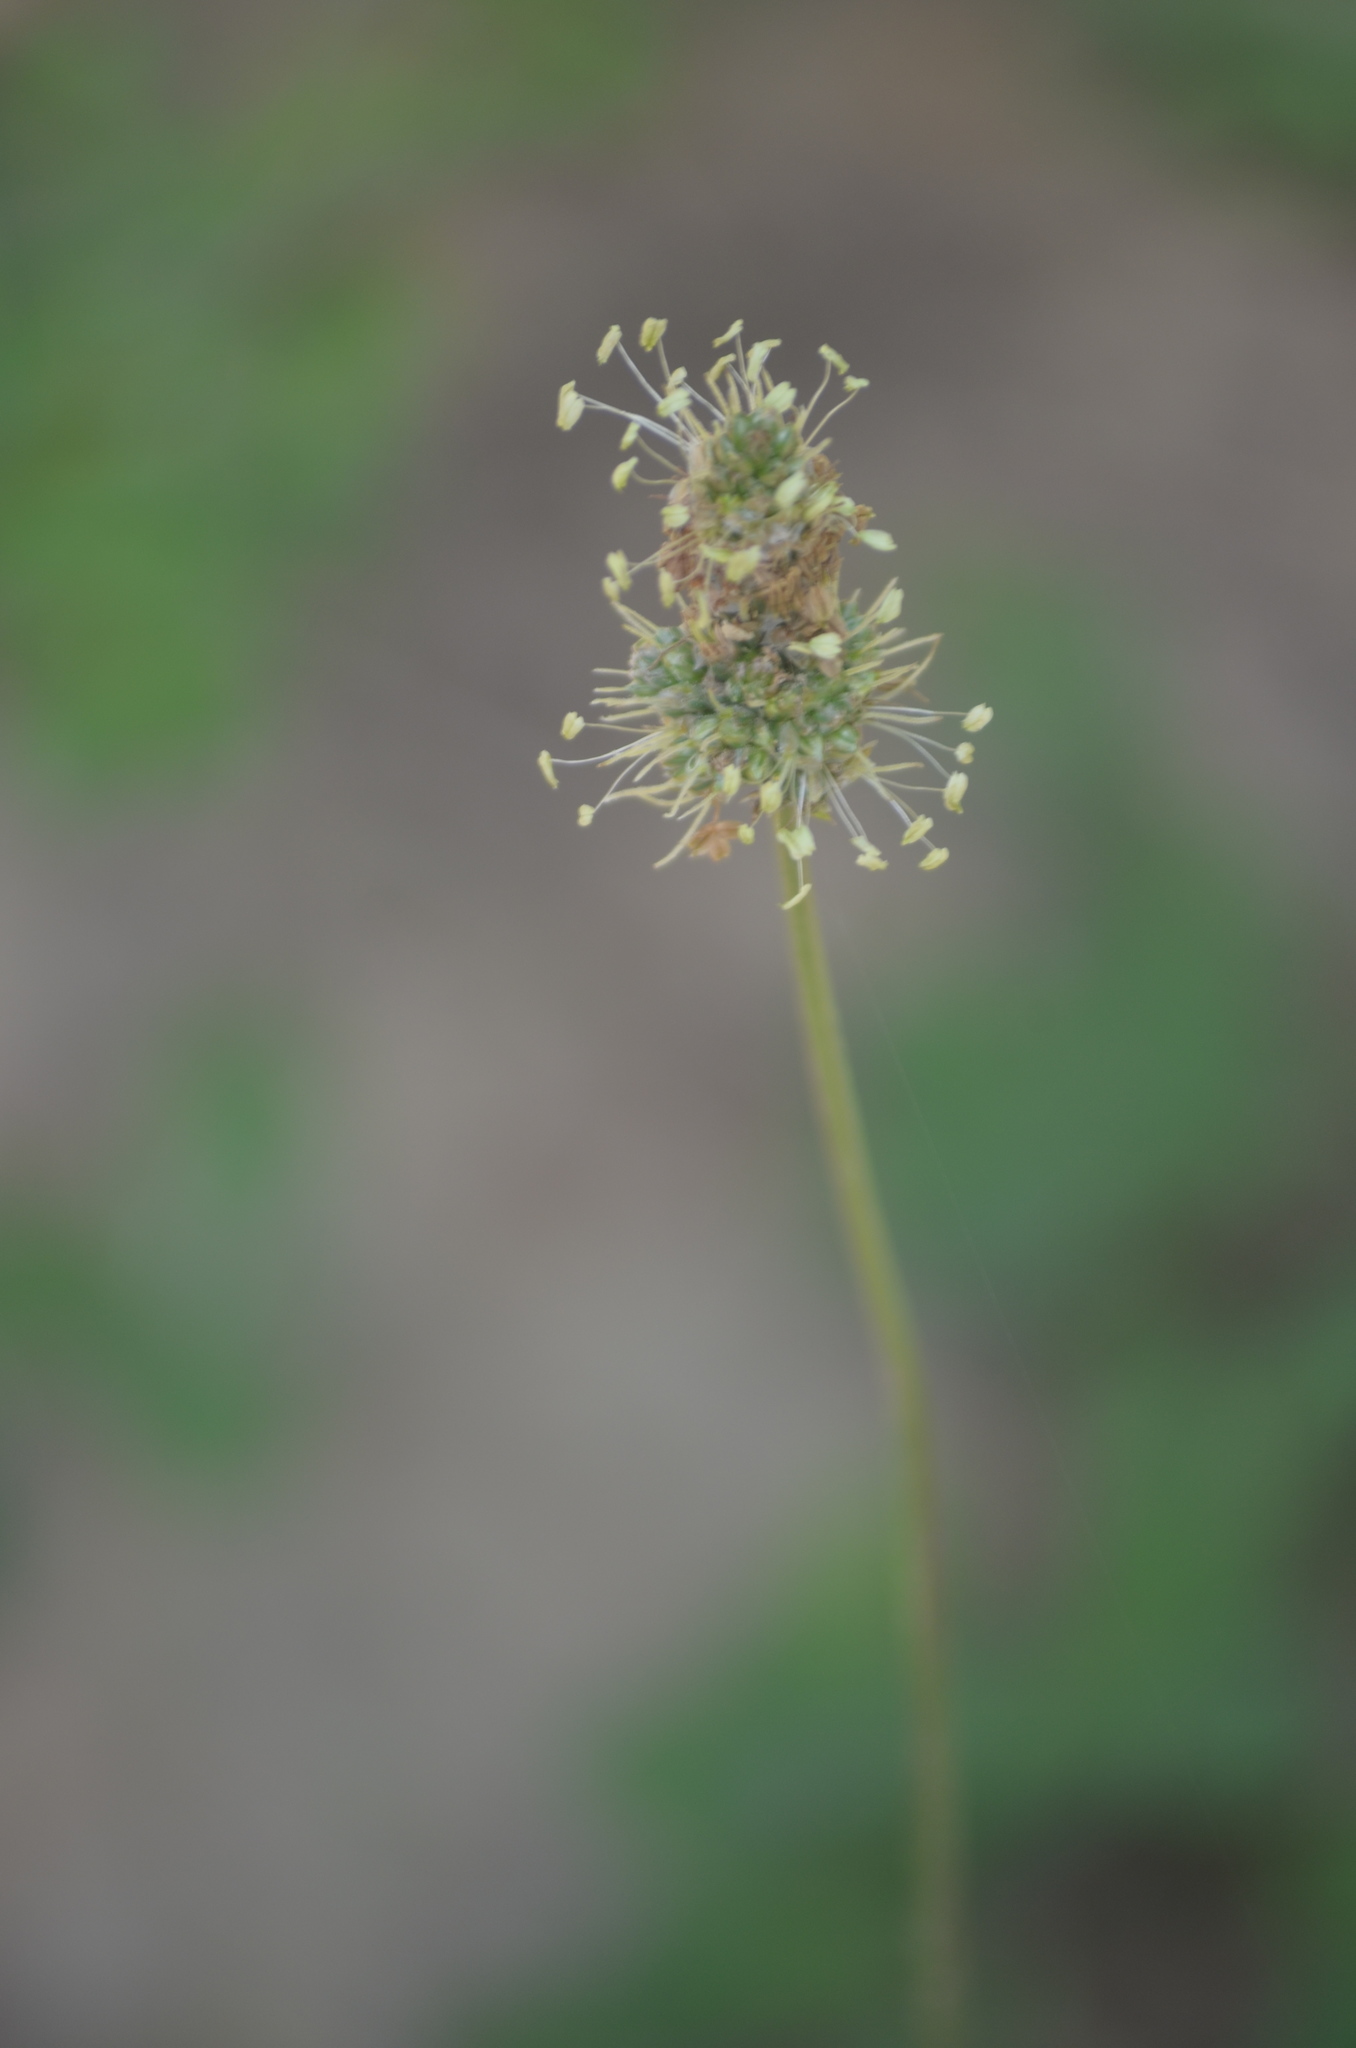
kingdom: Plantae
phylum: Tracheophyta
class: Magnoliopsida
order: Lamiales
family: Plantaginaceae
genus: Plantago
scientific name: Plantago lanceolata
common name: Ribwort plantain
